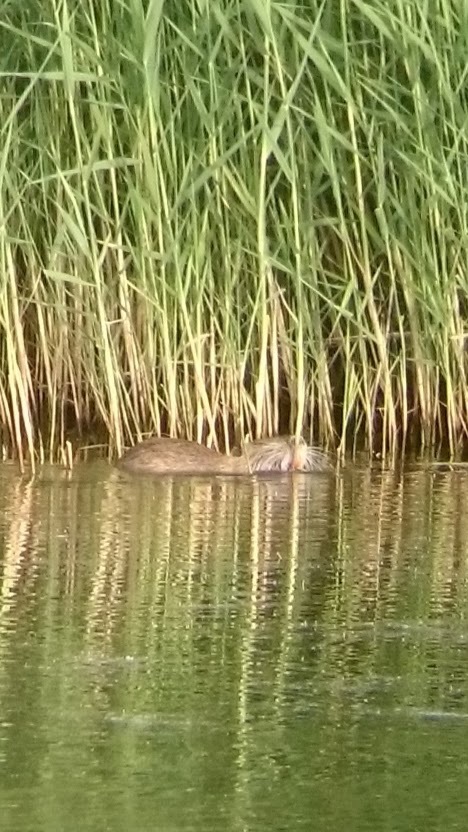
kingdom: Animalia
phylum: Chordata
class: Mammalia
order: Rodentia
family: Myocastoridae
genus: Myocastor
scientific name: Myocastor coypus
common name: Coypu
